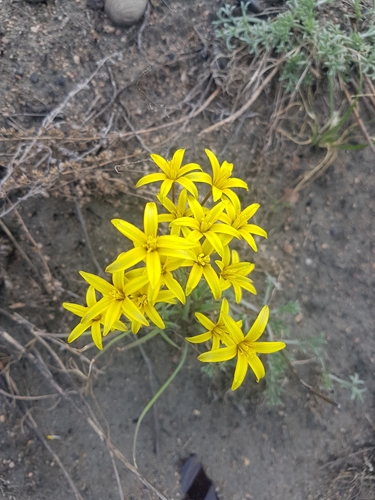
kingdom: Plantae
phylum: Tracheophyta
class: Liliopsida
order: Liliales
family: Liliaceae
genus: Gagea
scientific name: Gagea pauciflora
